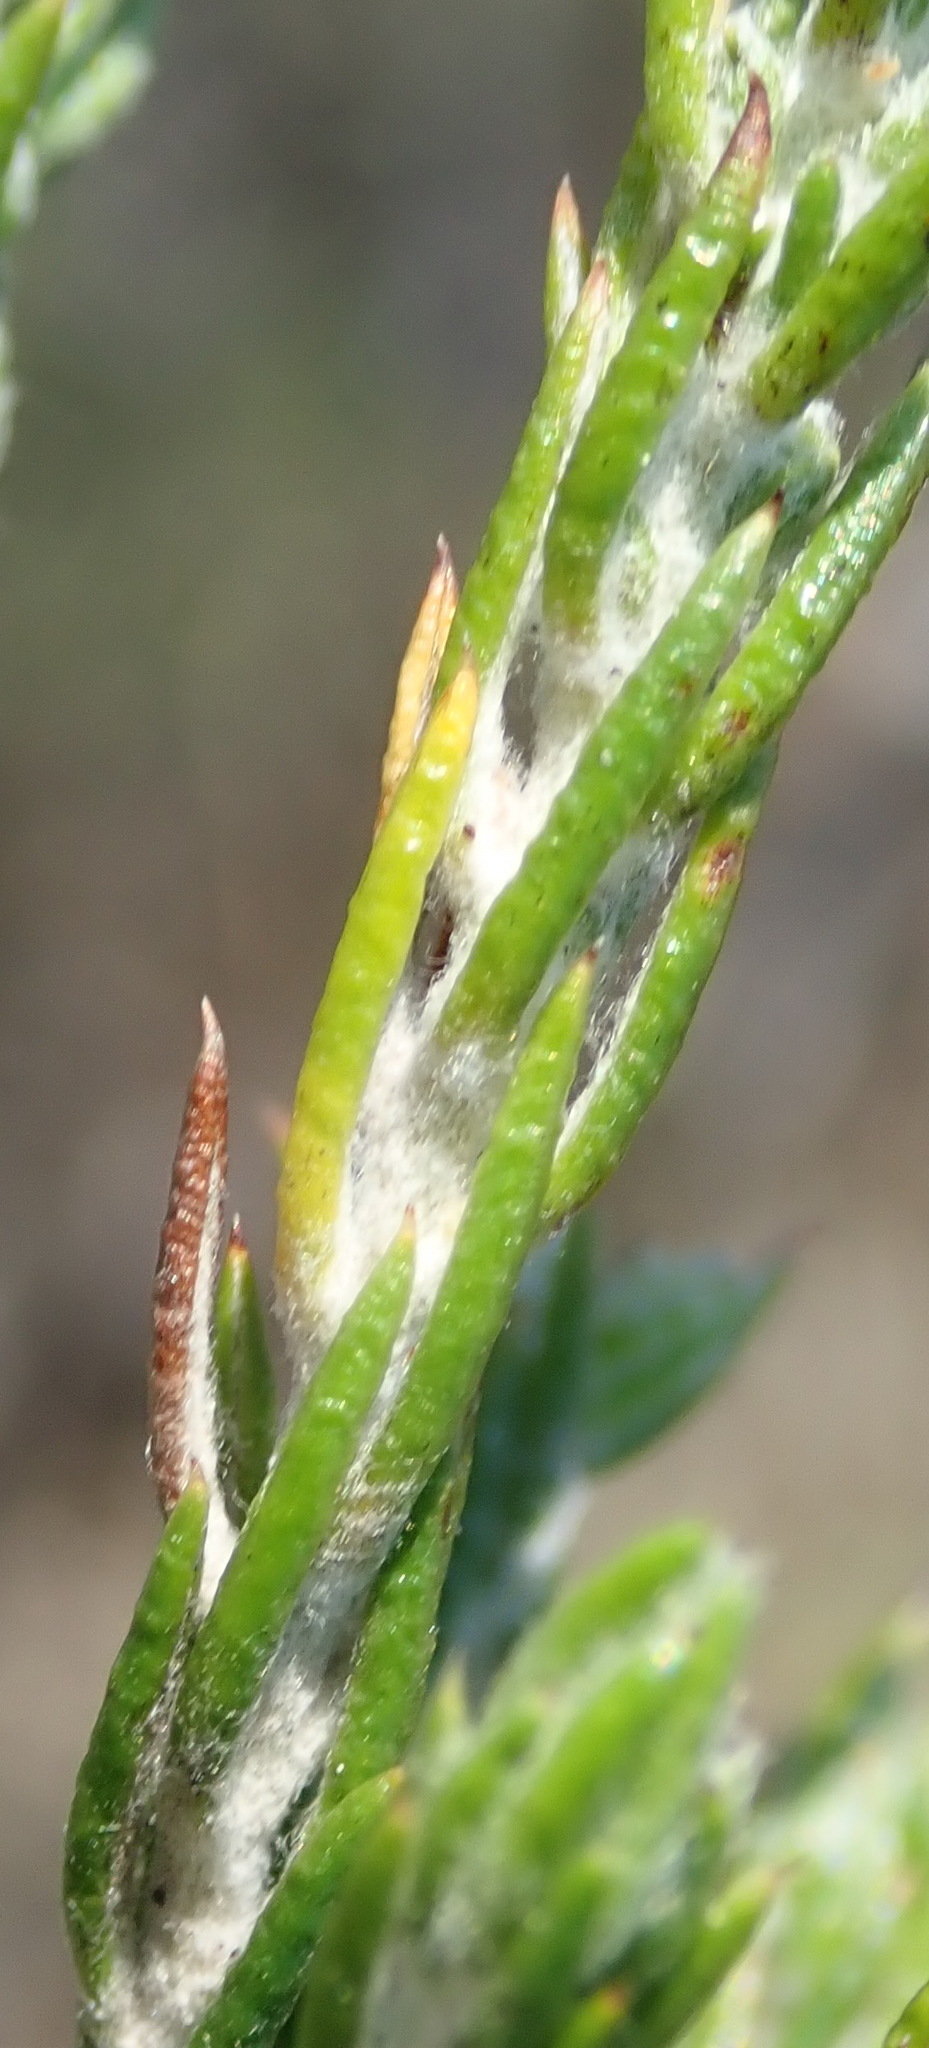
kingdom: Plantae
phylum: Tracheophyta
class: Magnoliopsida
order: Asterales
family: Asteraceae
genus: Metalasia
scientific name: Metalasia pungens
